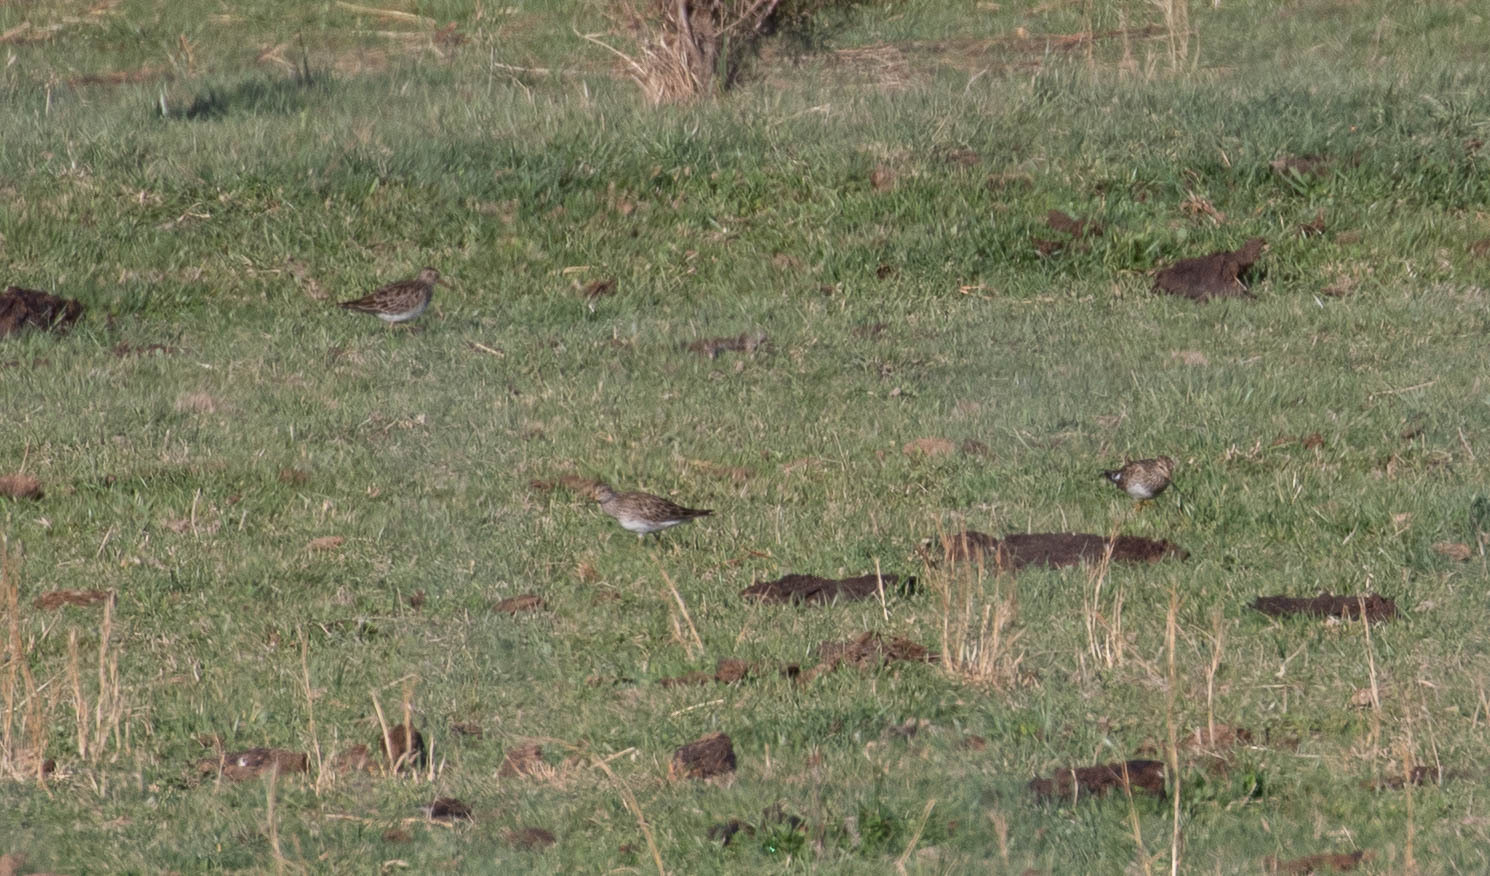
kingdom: Animalia
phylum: Chordata
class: Aves
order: Charadriiformes
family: Scolopacidae
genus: Calidris
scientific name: Calidris melanotos
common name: Pectoral sandpiper
